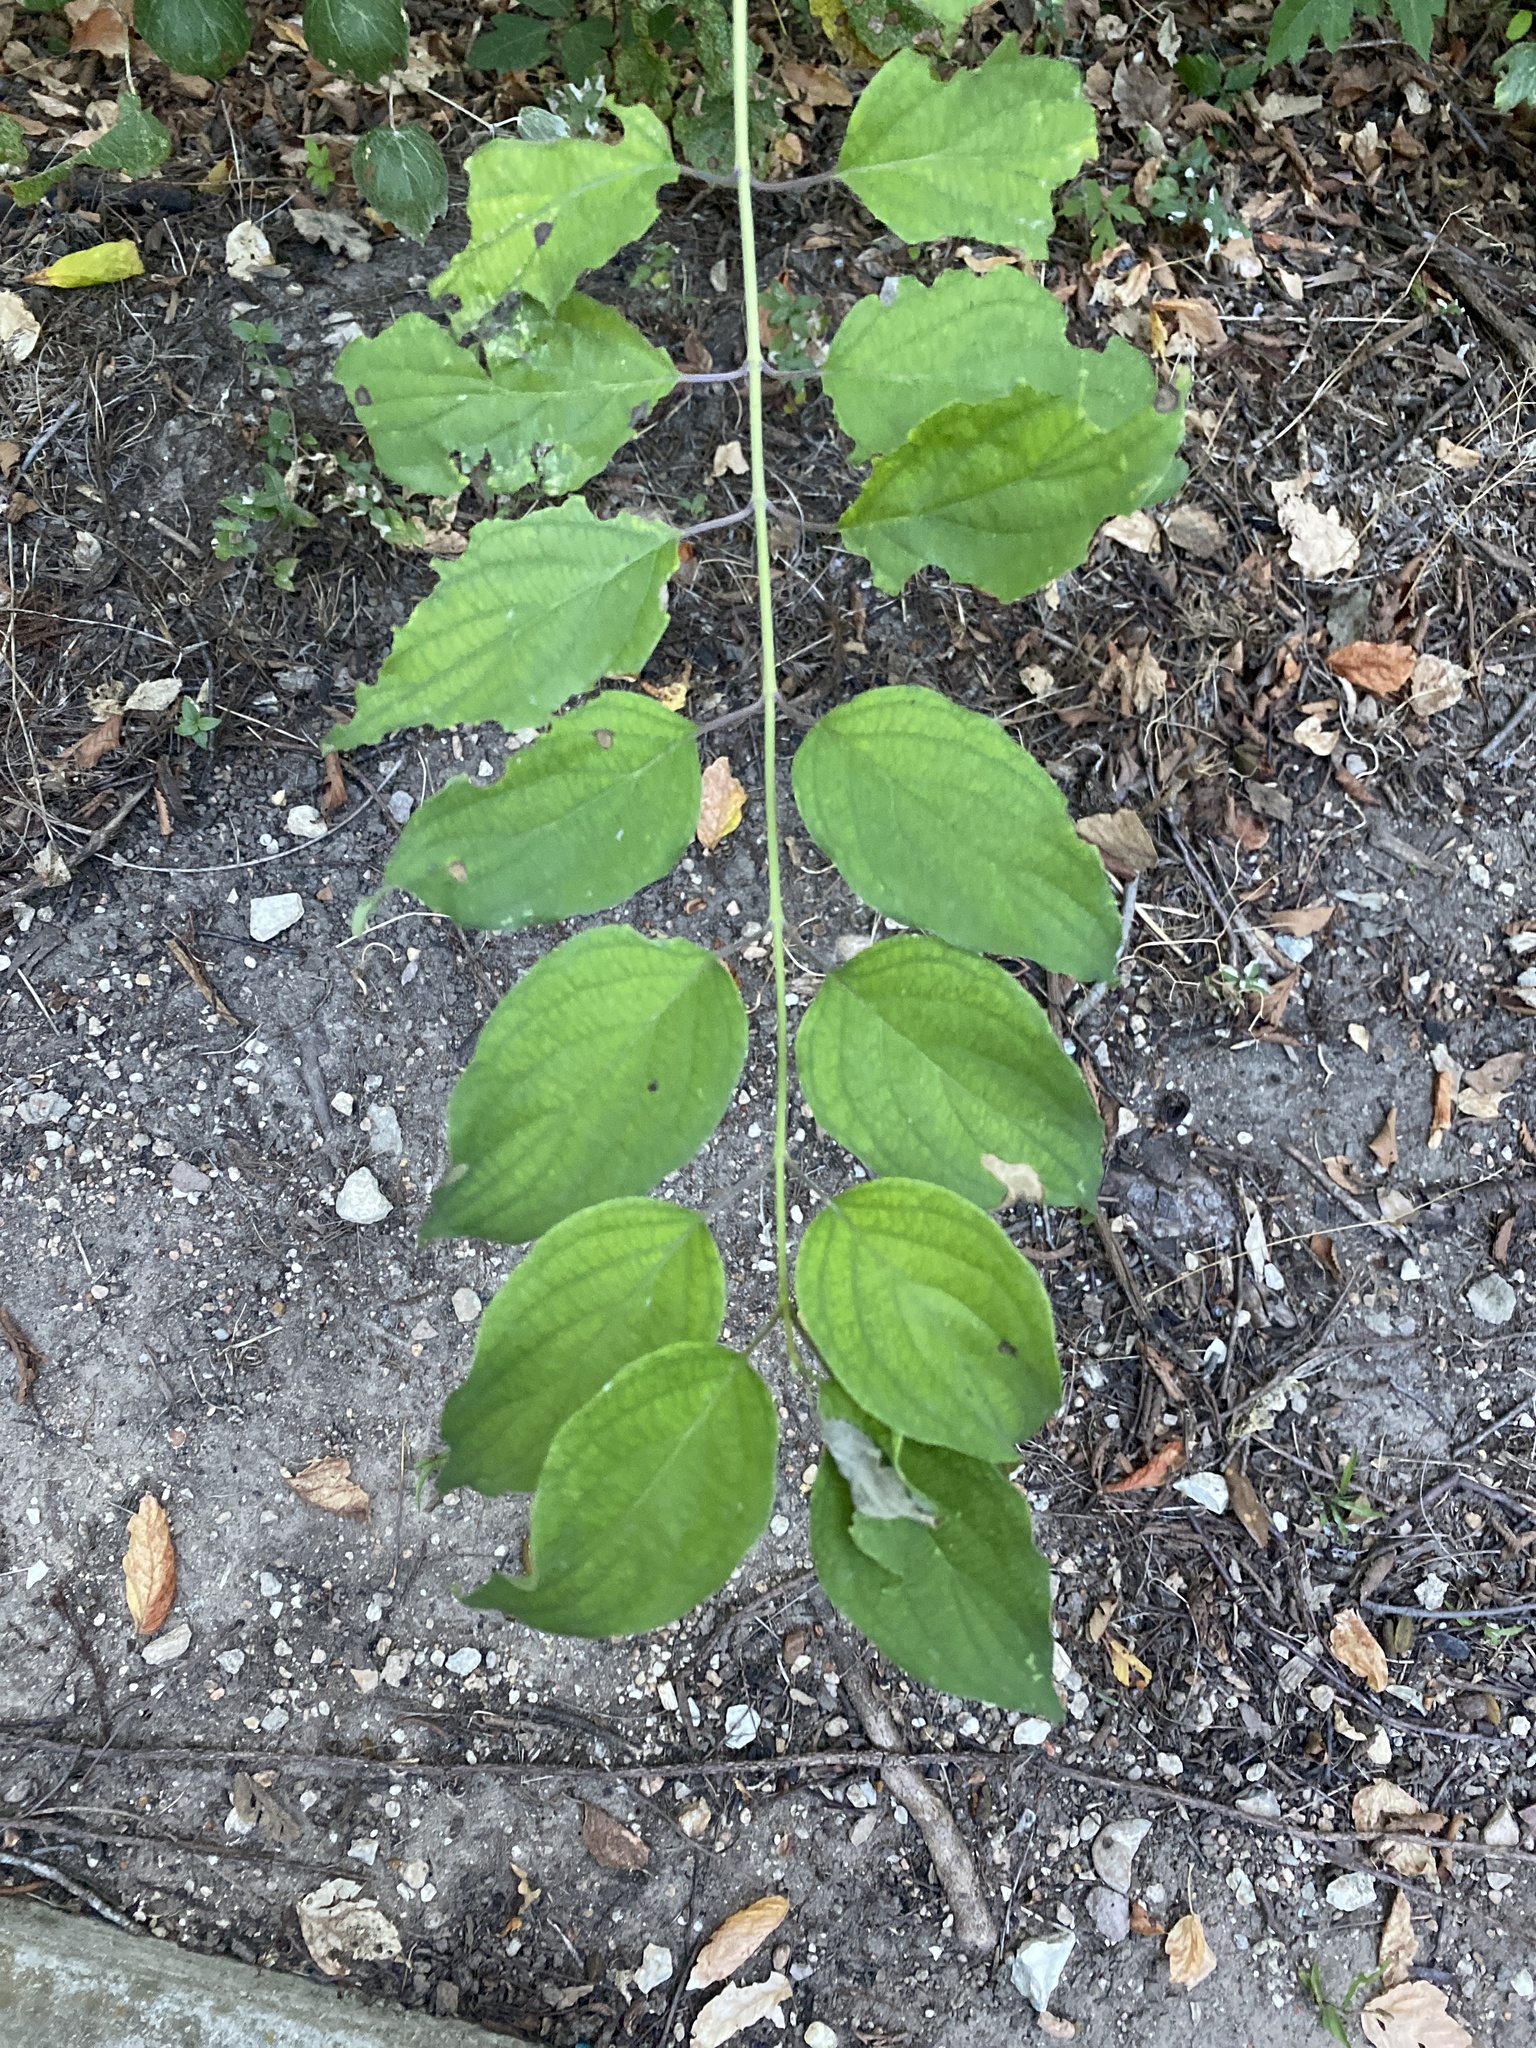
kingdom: Plantae
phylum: Tracheophyta
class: Magnoliopsida
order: Cornales
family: Cornaceae
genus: Cornus
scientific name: Cornus drummondii
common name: Rough-leaf dogwood
